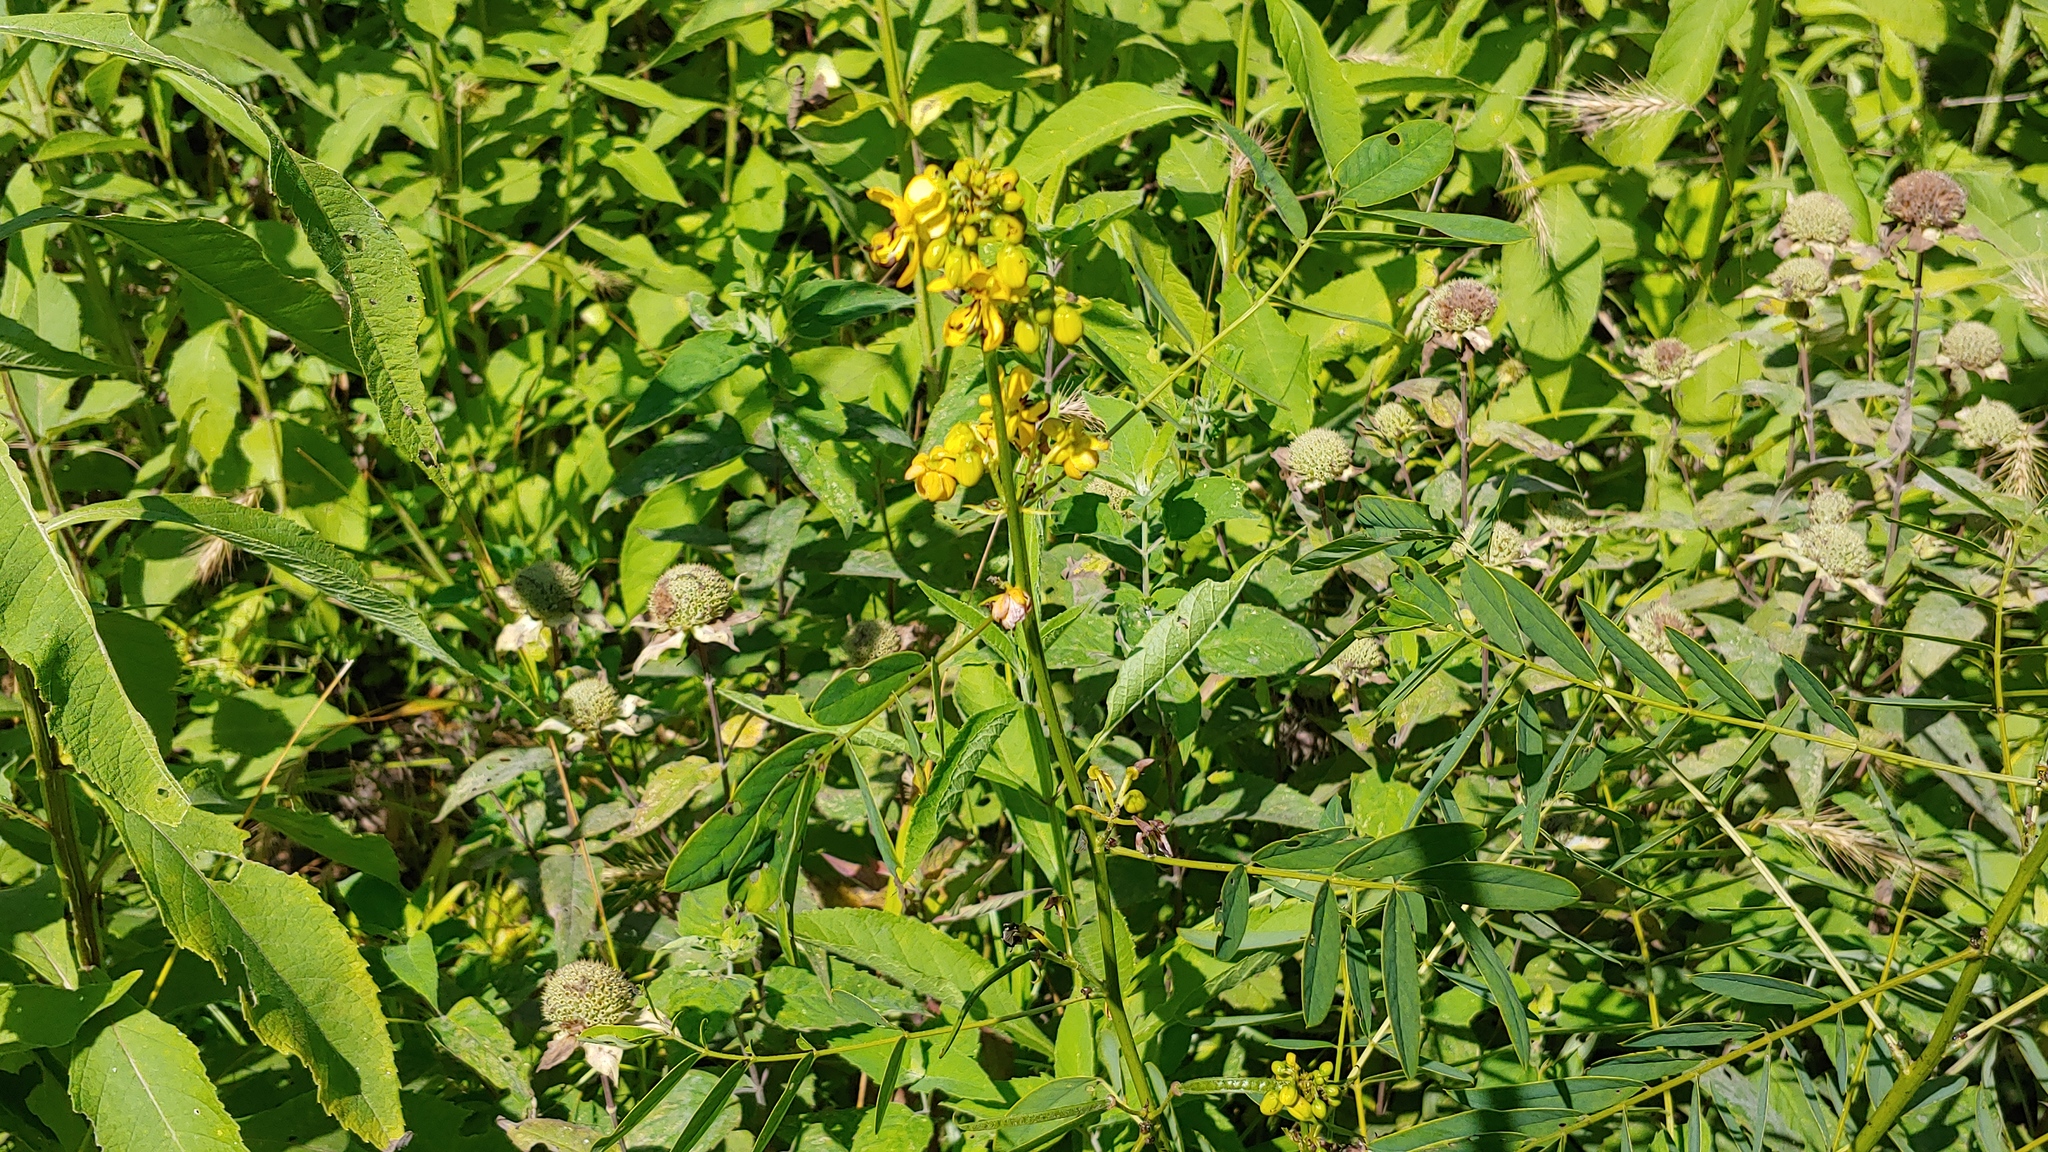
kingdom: Plantae
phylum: Tracheophyta
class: Magnoliopsida
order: Fabales
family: Fabaceae
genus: Senna
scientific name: Senna marilandica
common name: American senna
